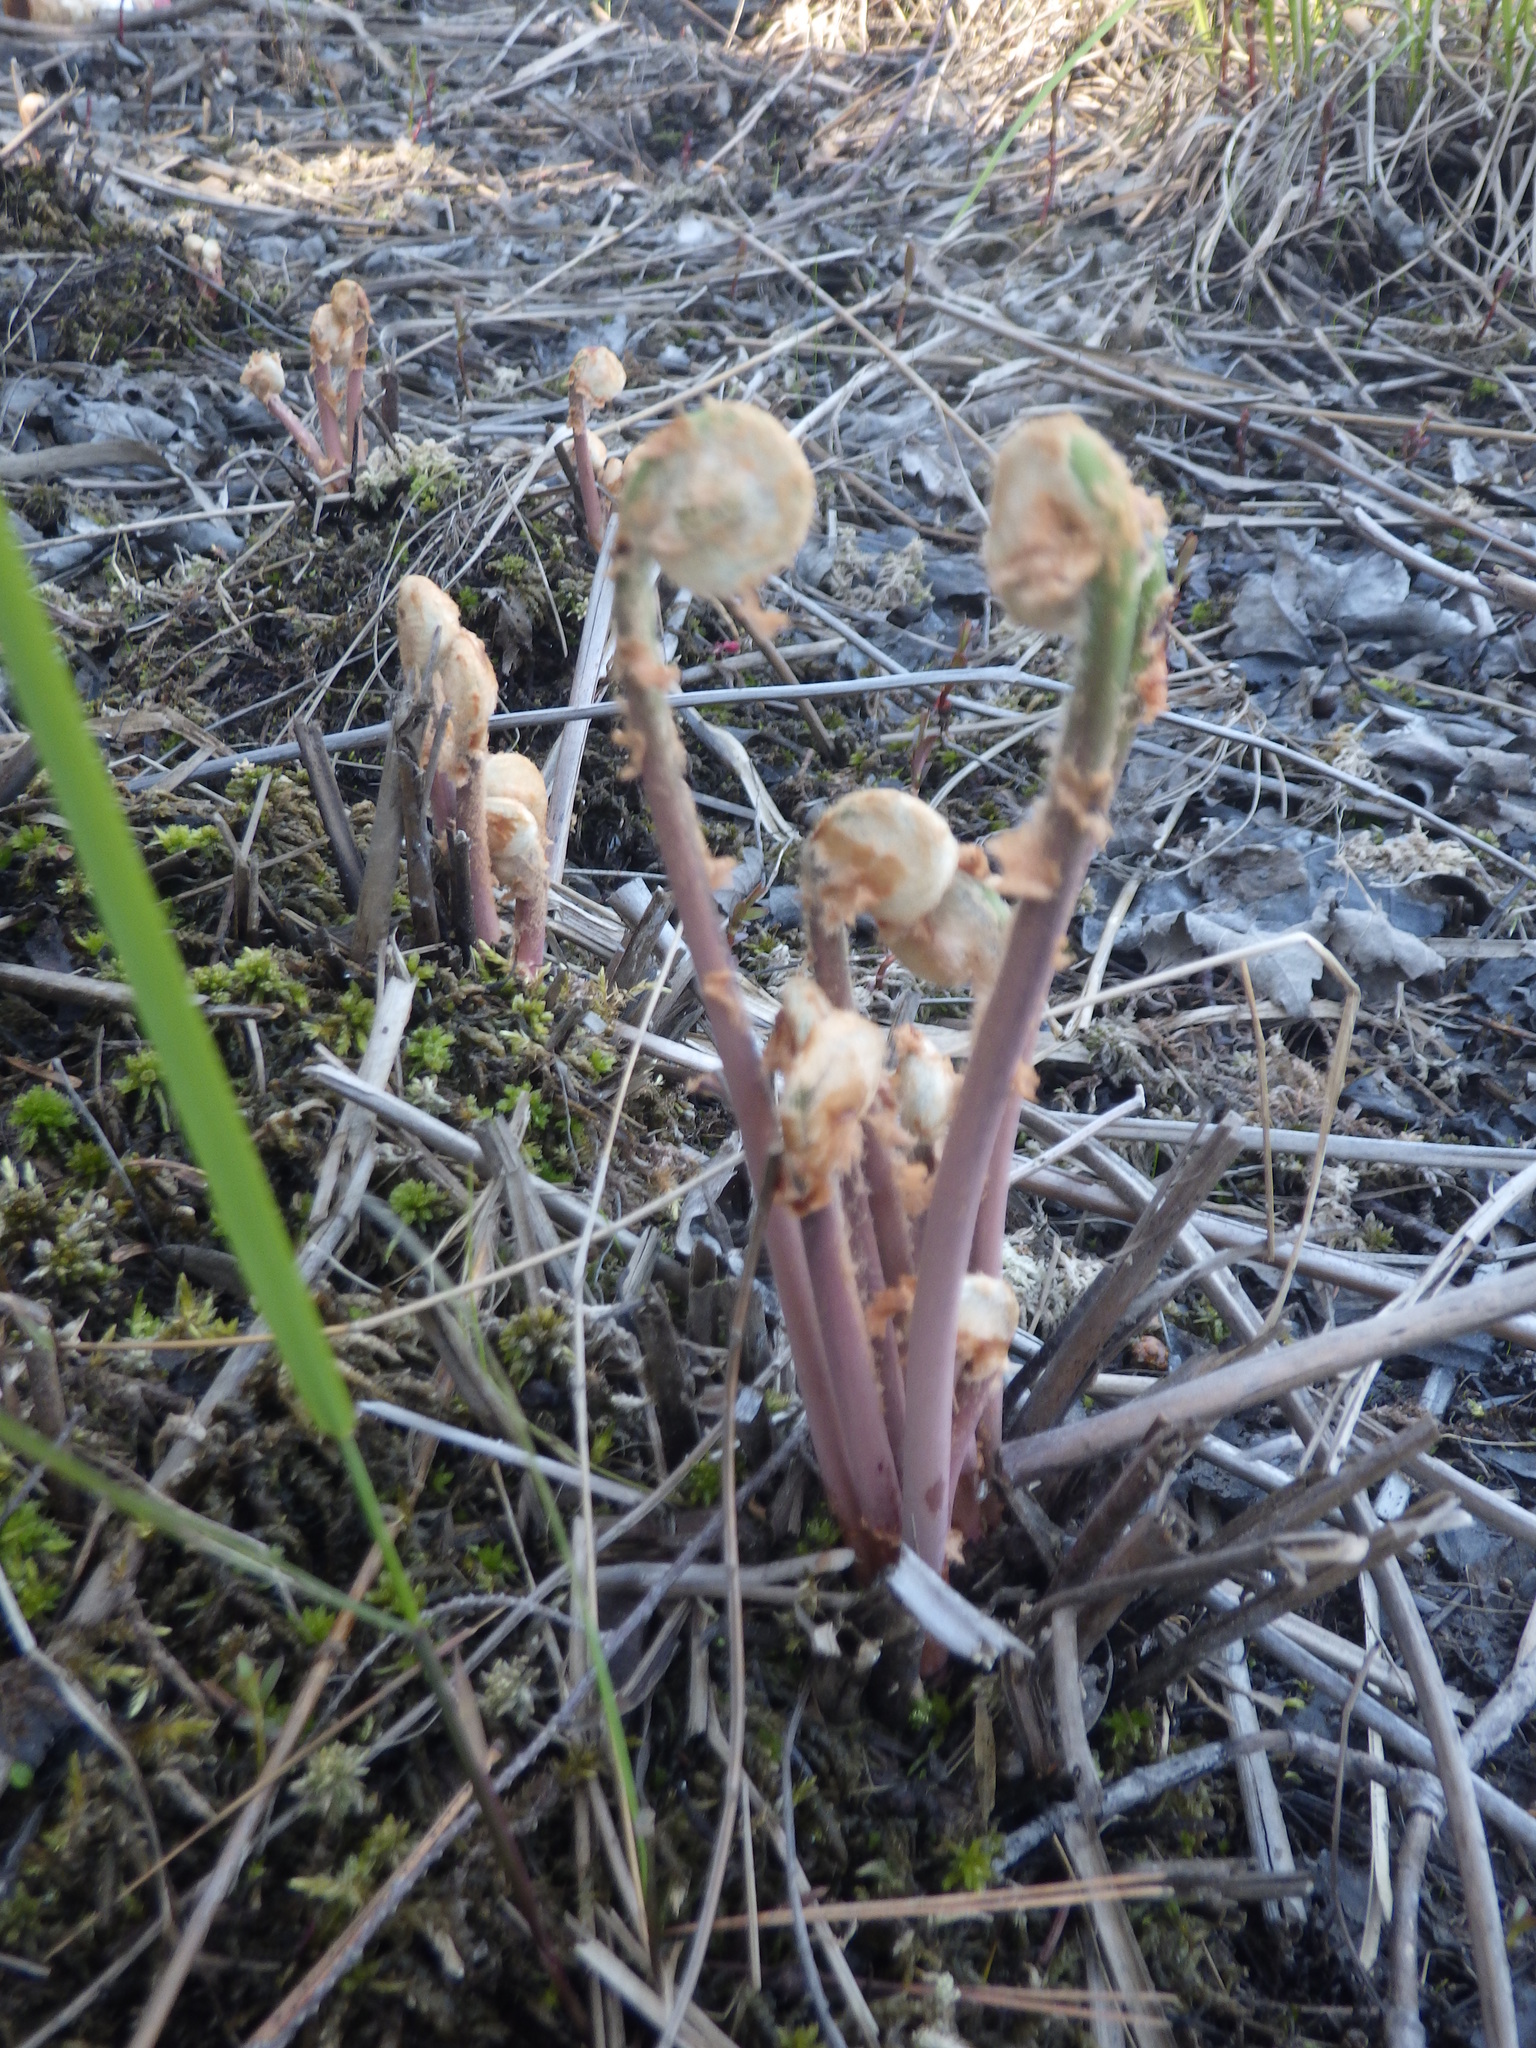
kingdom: Plantae
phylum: Tracheophyta
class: Polypodiopsida
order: Osmundales
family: Osmundaceae
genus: Osmunda
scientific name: Osmunda spectabilis
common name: American royal fern
